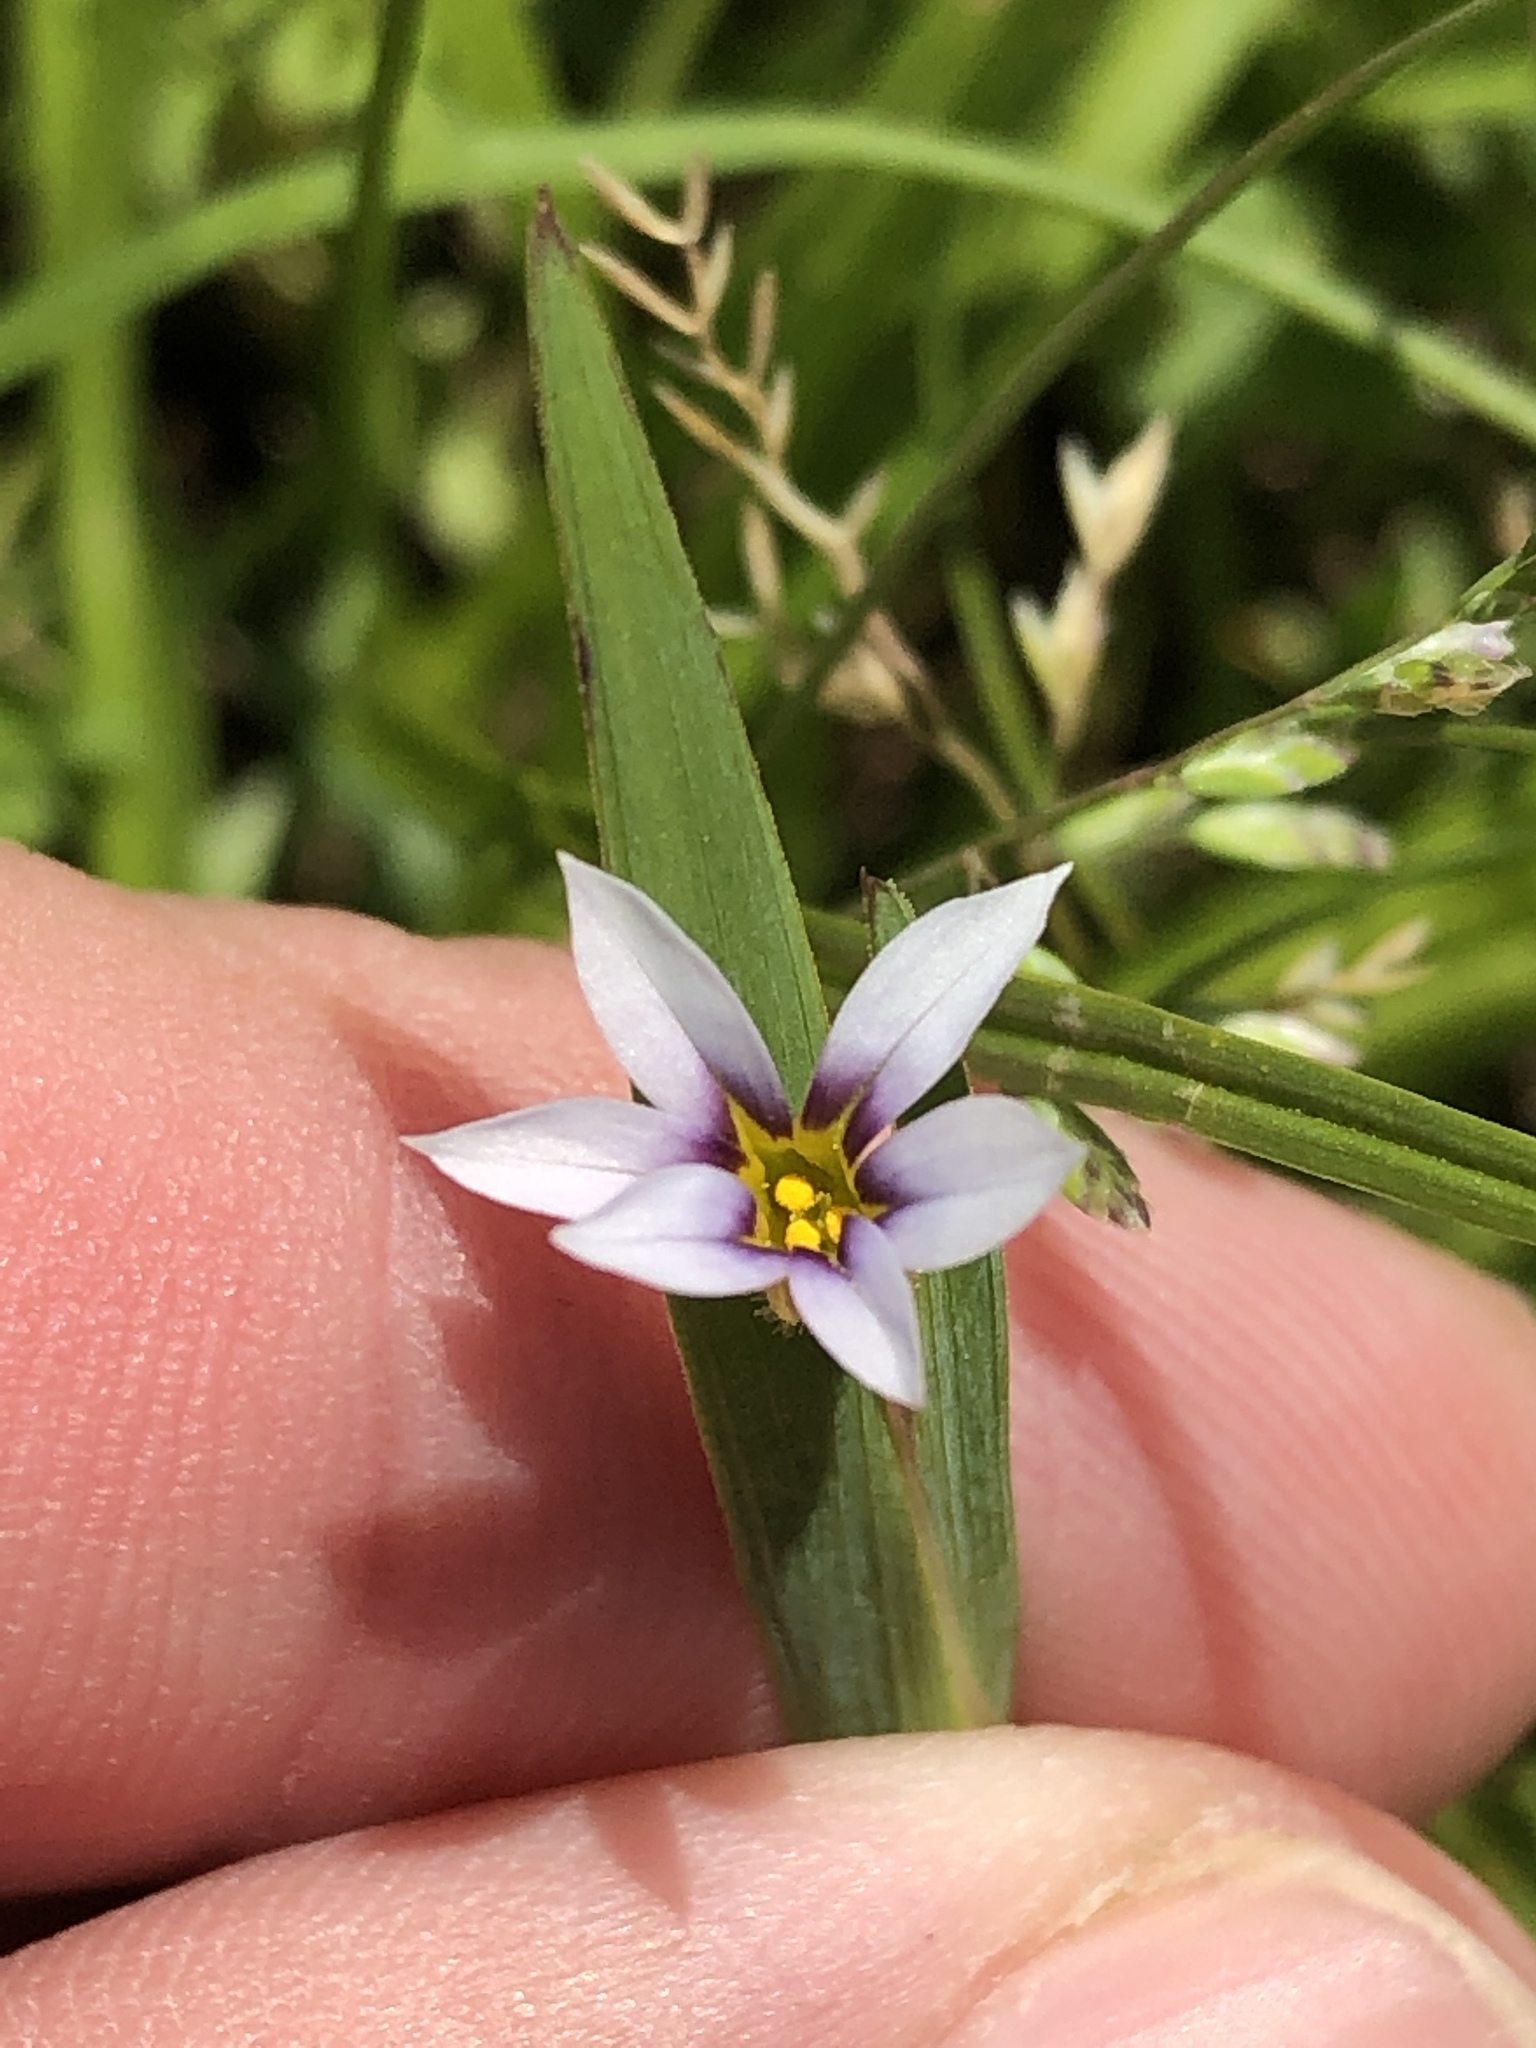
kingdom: Plantae
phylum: Tracheophyta
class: Liliopsida
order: Asparagales
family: Iridaceae
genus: Sisyrinchium
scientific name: Sisyrinchium micranthum
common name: Bermuda pigroot
